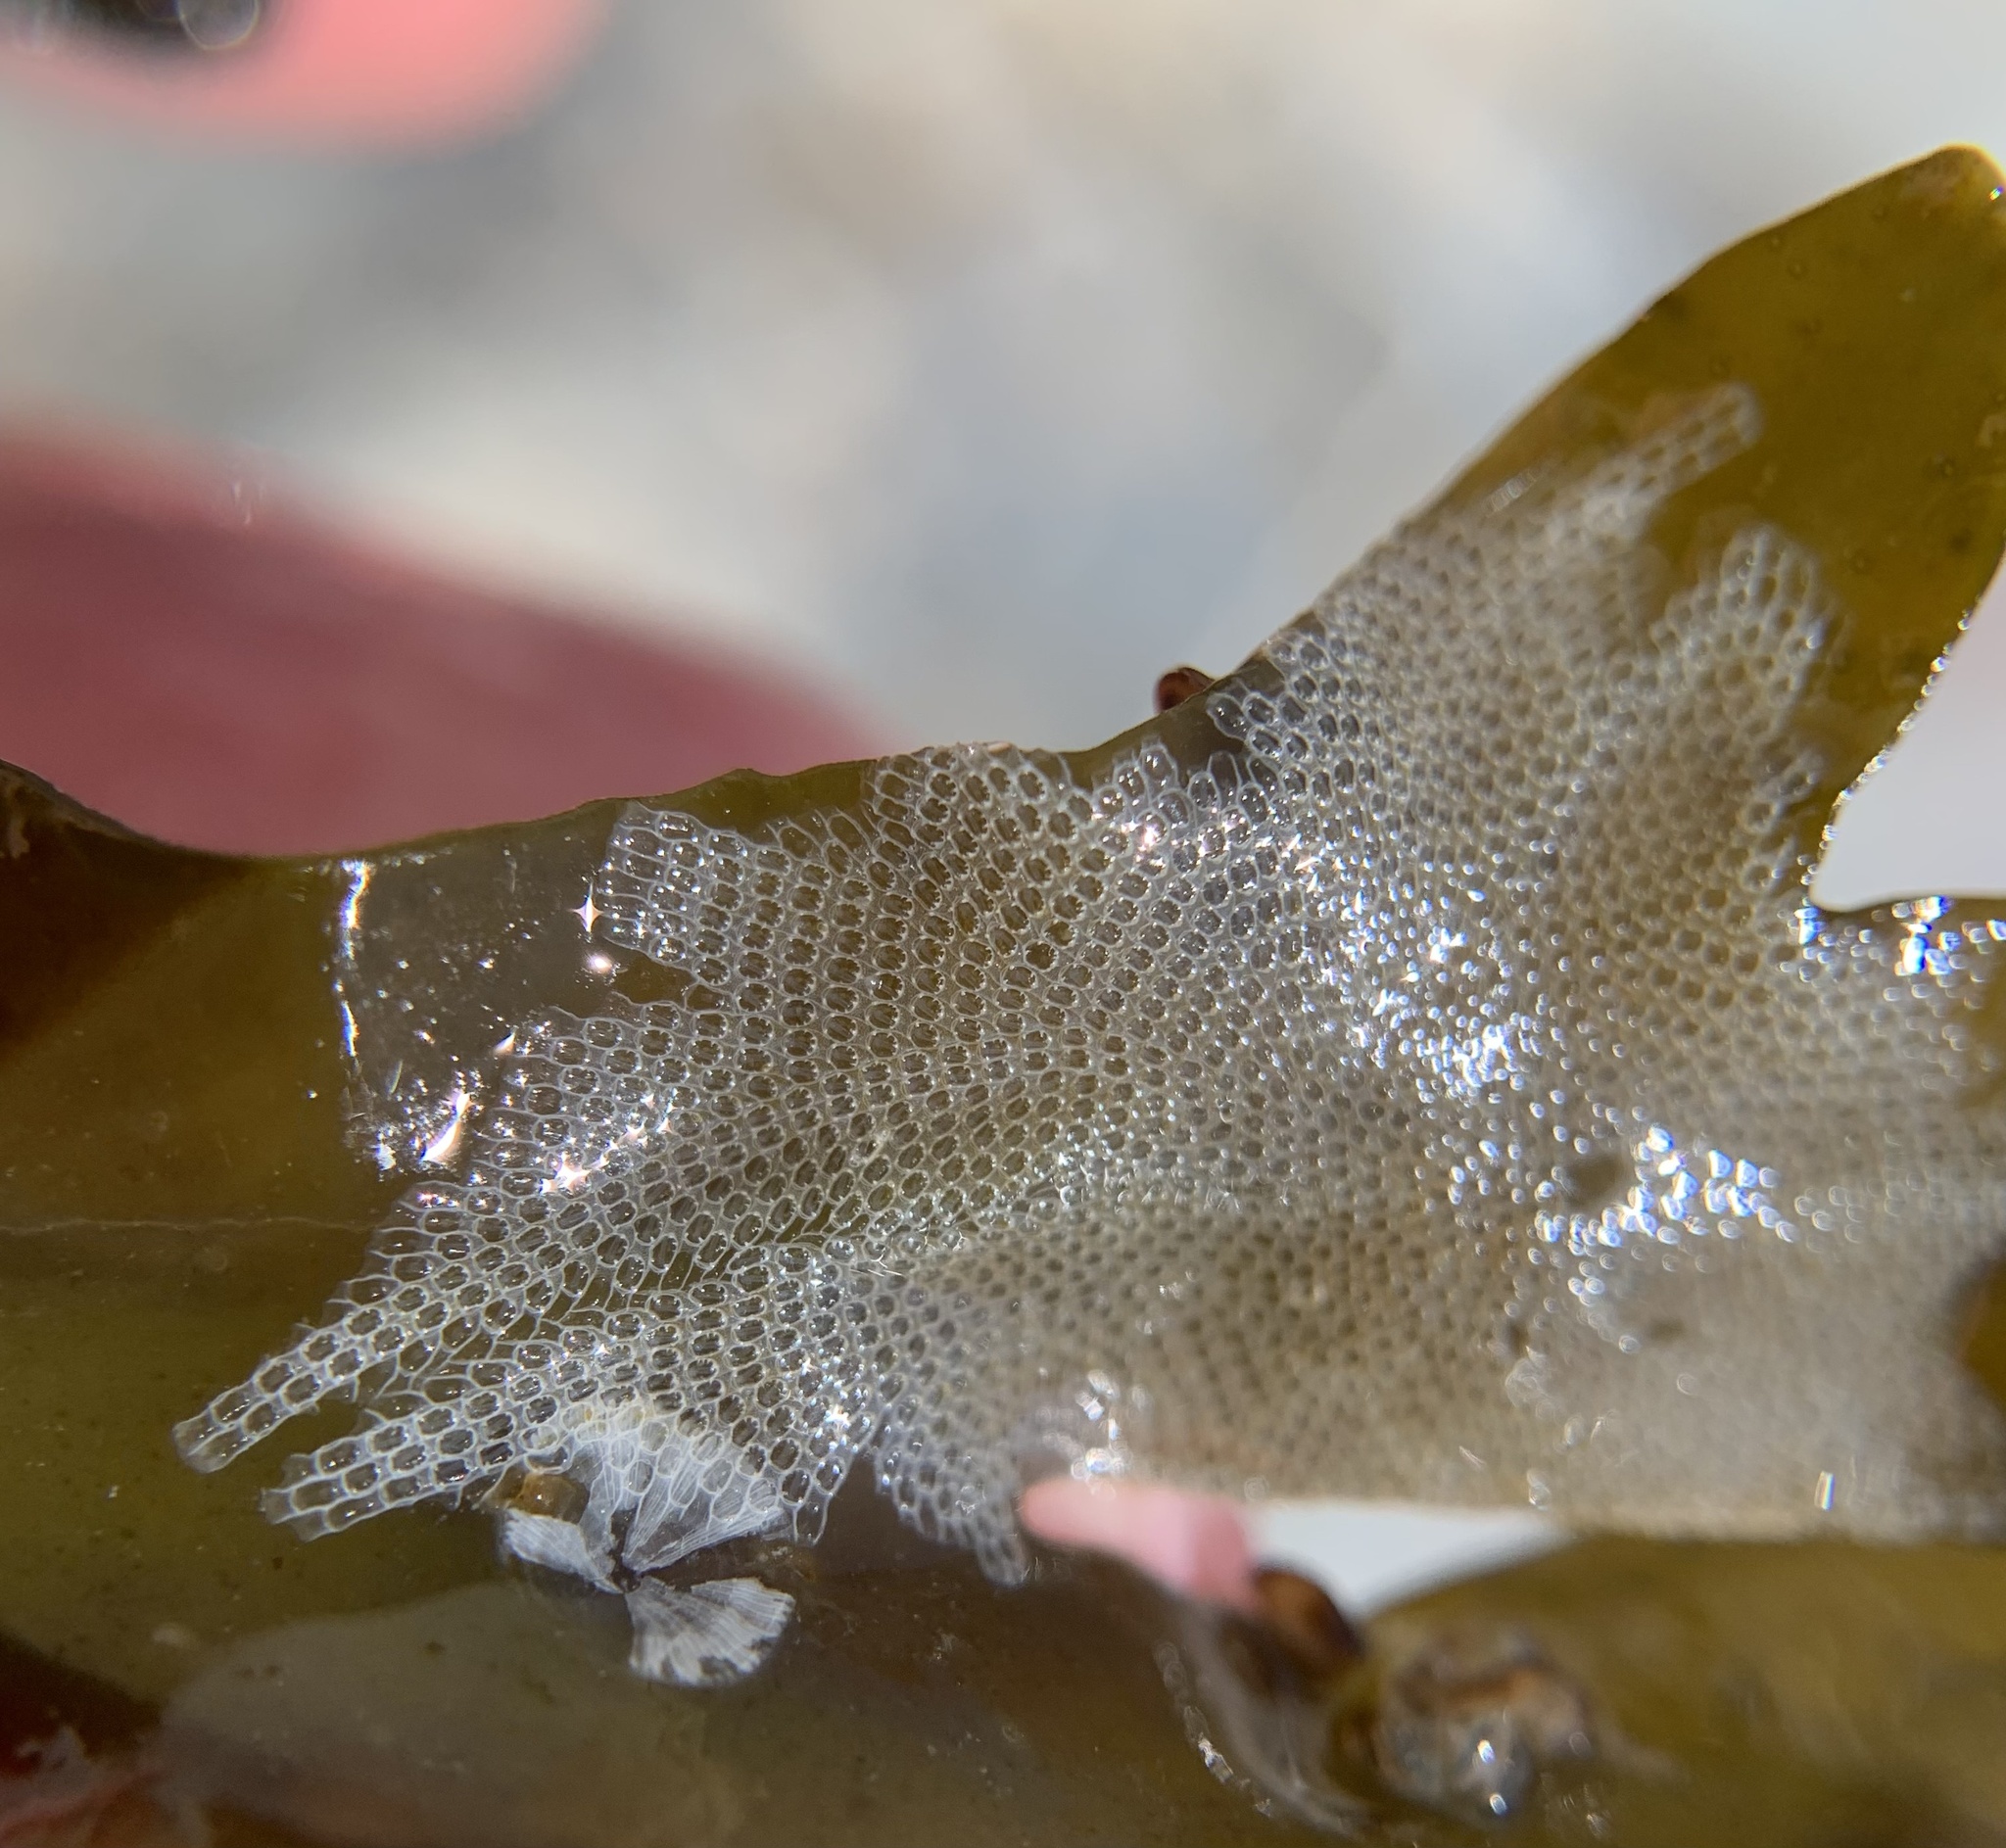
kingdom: Animalia
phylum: Bryozoa
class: Gymnolaemata
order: Cheilostomatida
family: Electridae
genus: Electra
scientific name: Electra pilosa
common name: Hairy sea-mat
